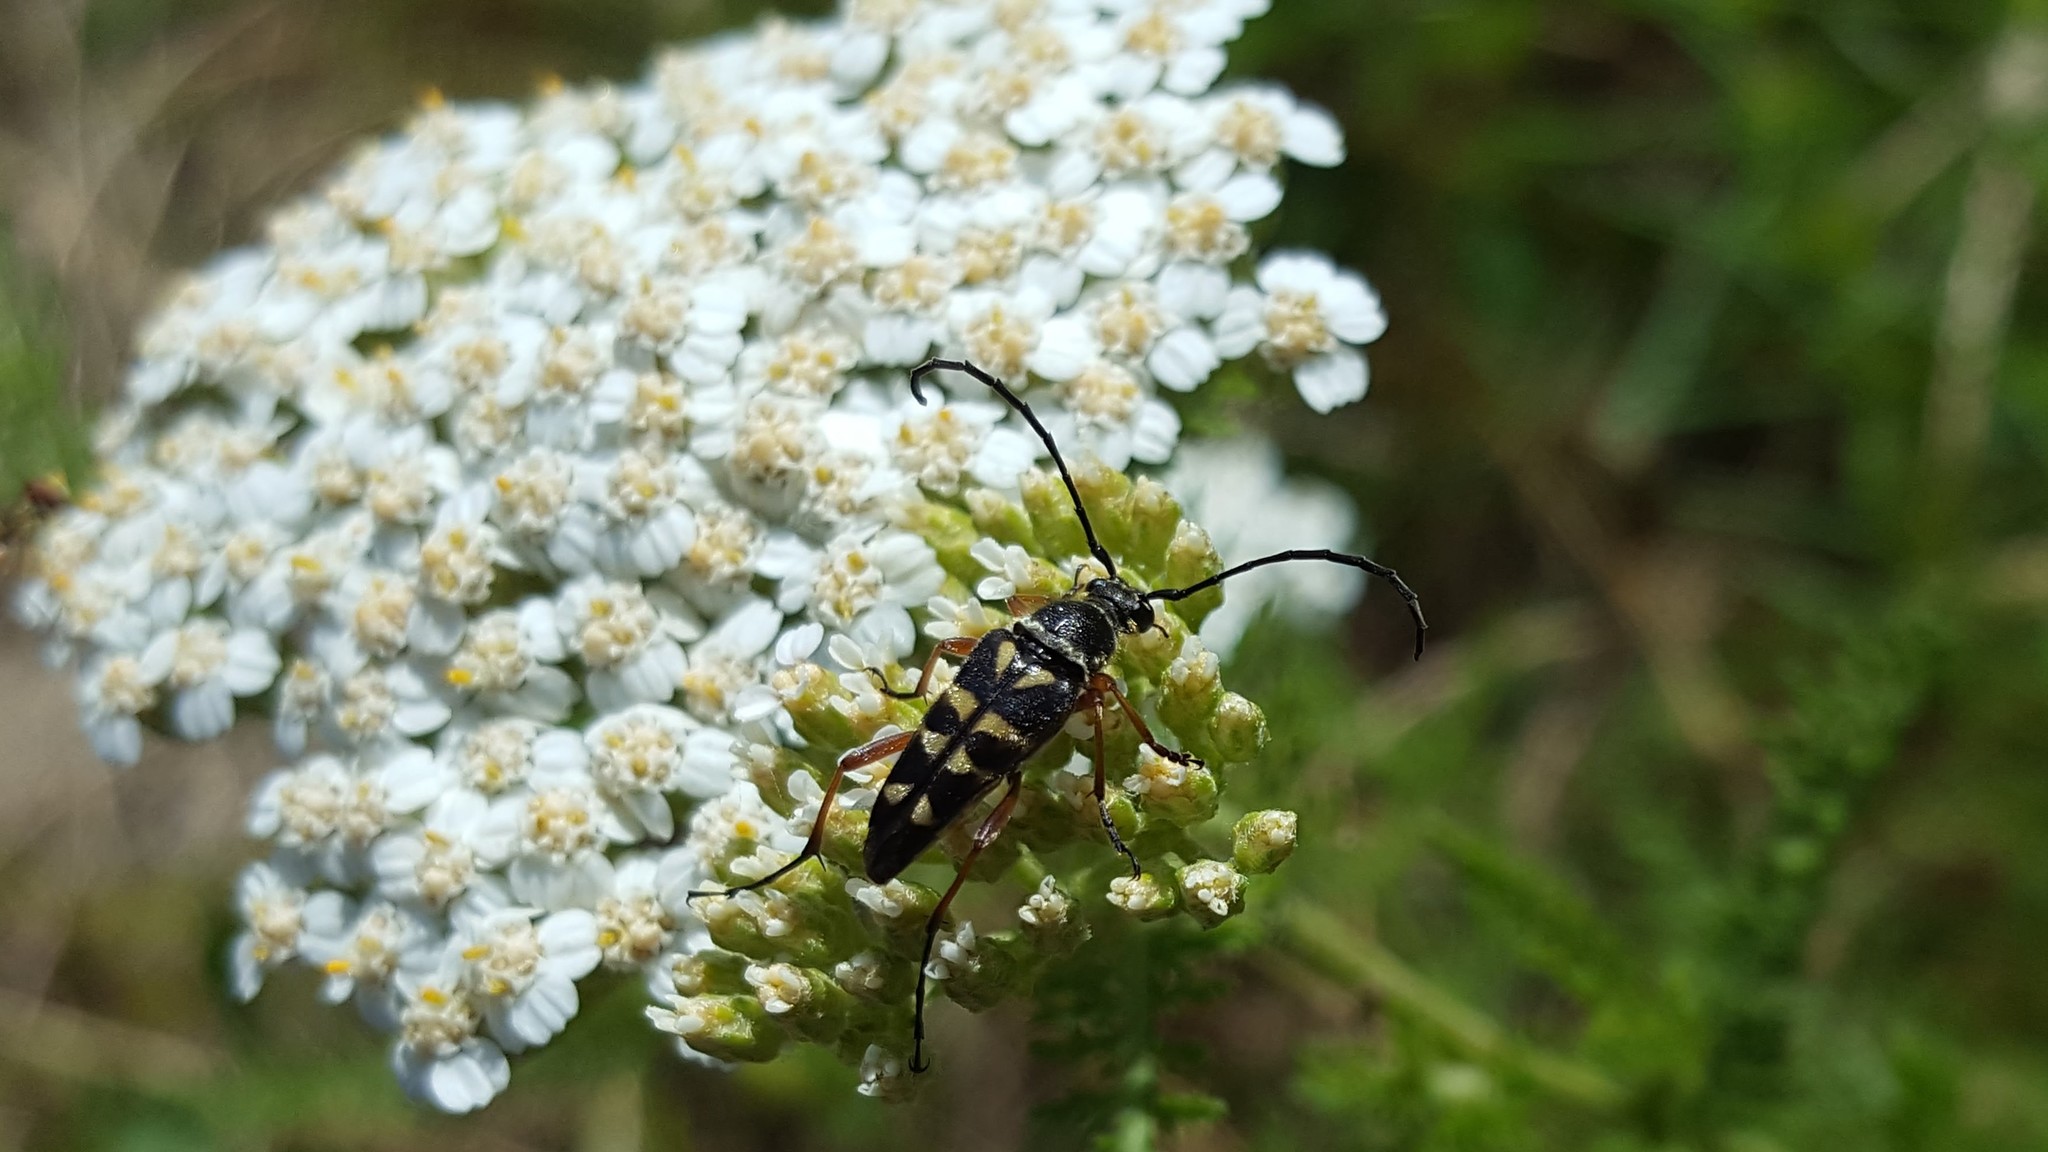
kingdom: Animalia
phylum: Arthropoda
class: Insecta
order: Coleoptera
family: Cerambycidae
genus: Typocerus
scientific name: Typocerus zebra
